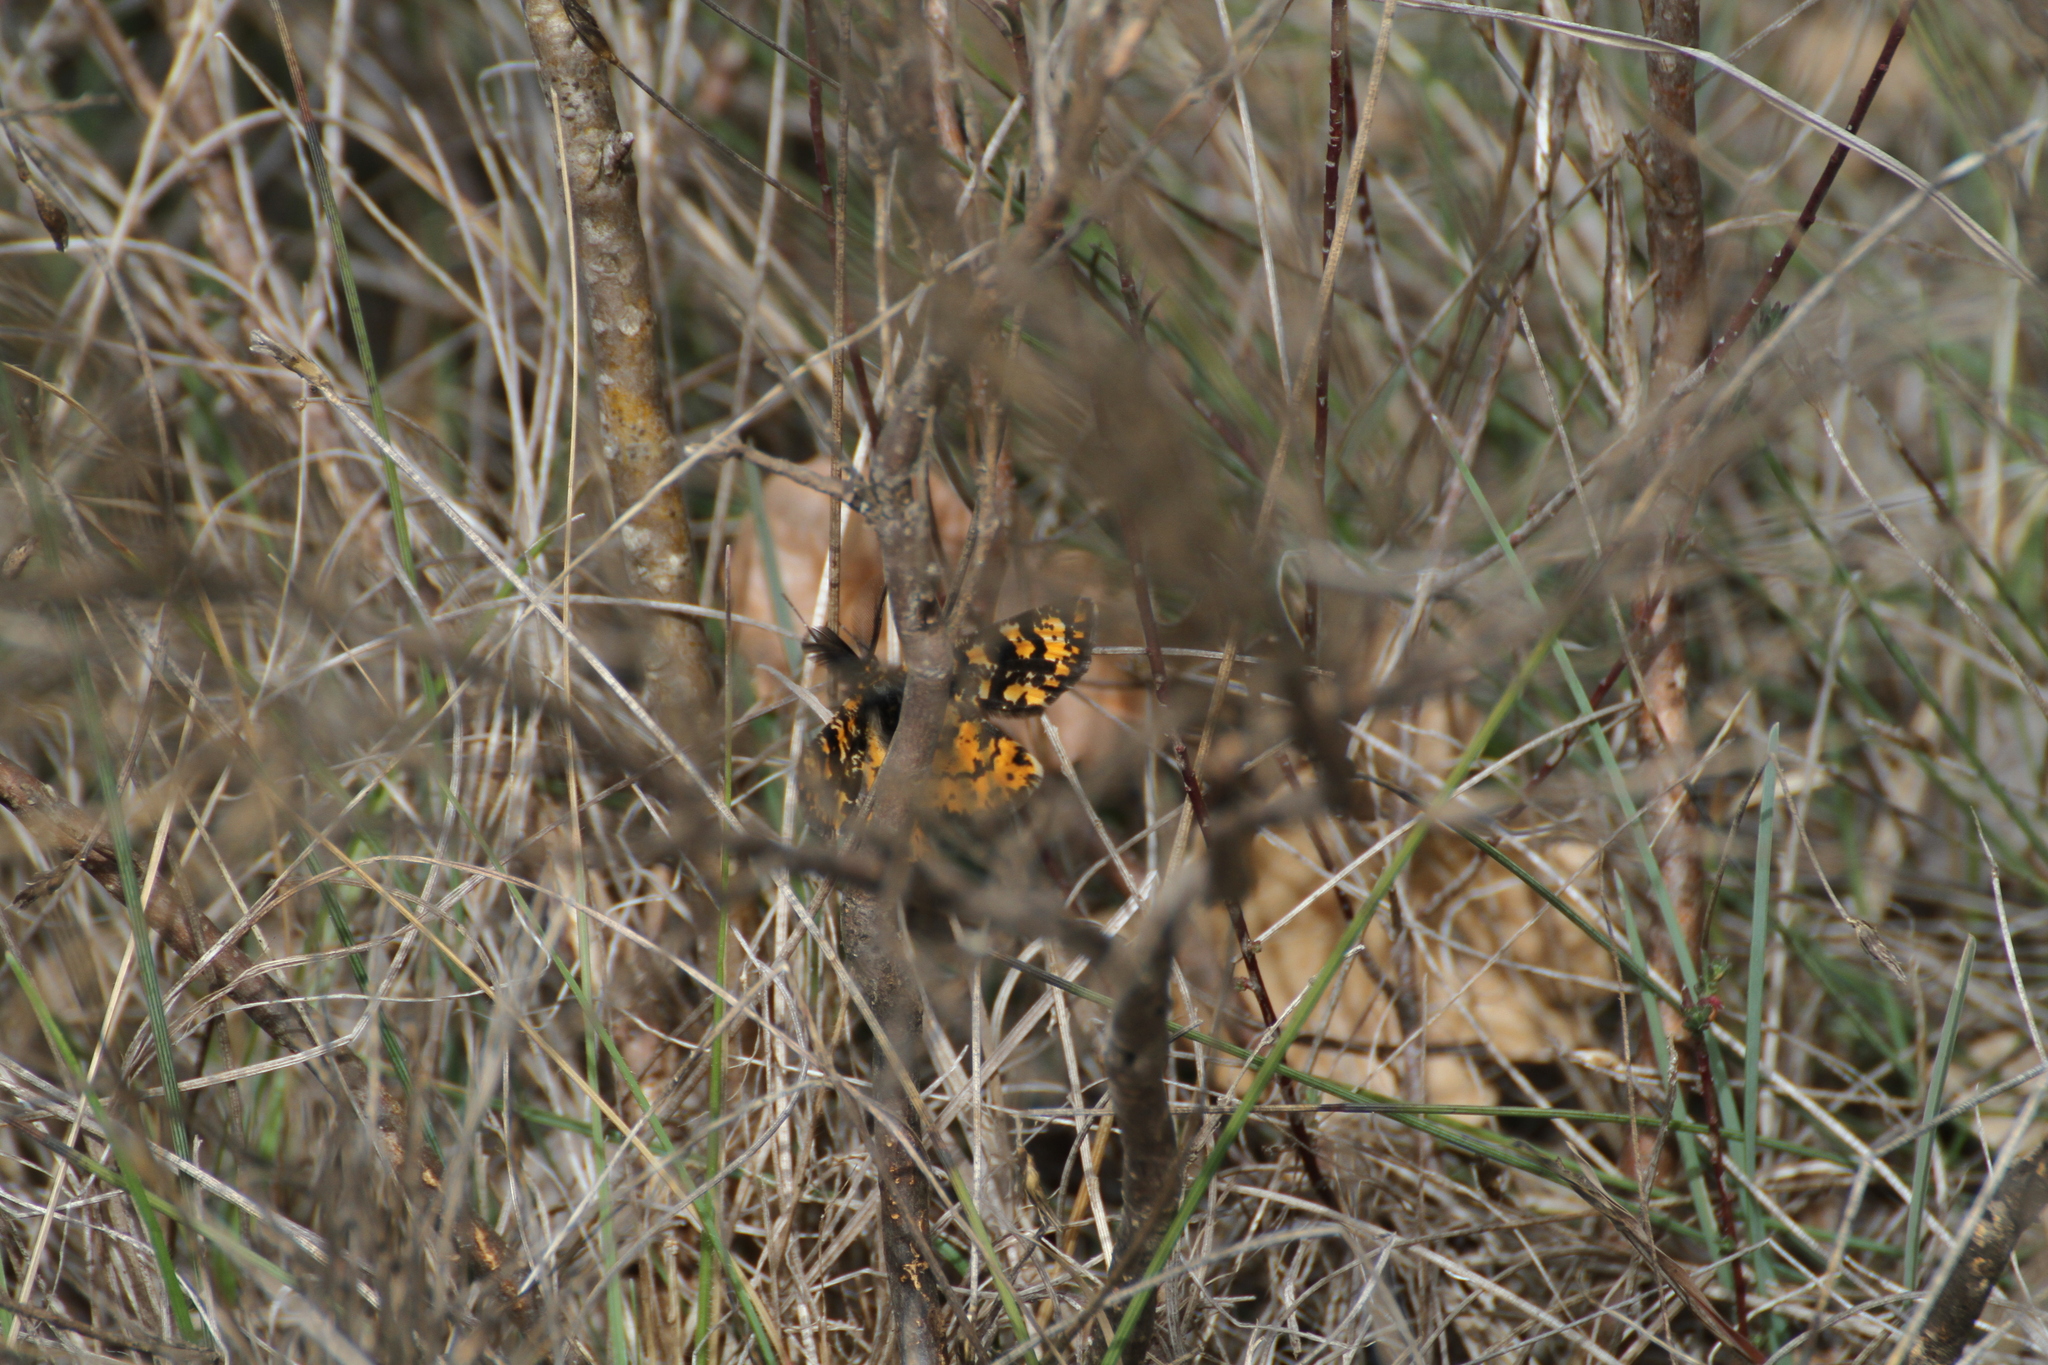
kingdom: Animalia
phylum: Arthropoda
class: Insecta
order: Lepidoptera
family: Geometridae
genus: Eurranthis
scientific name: Eurranthis plummistaria
